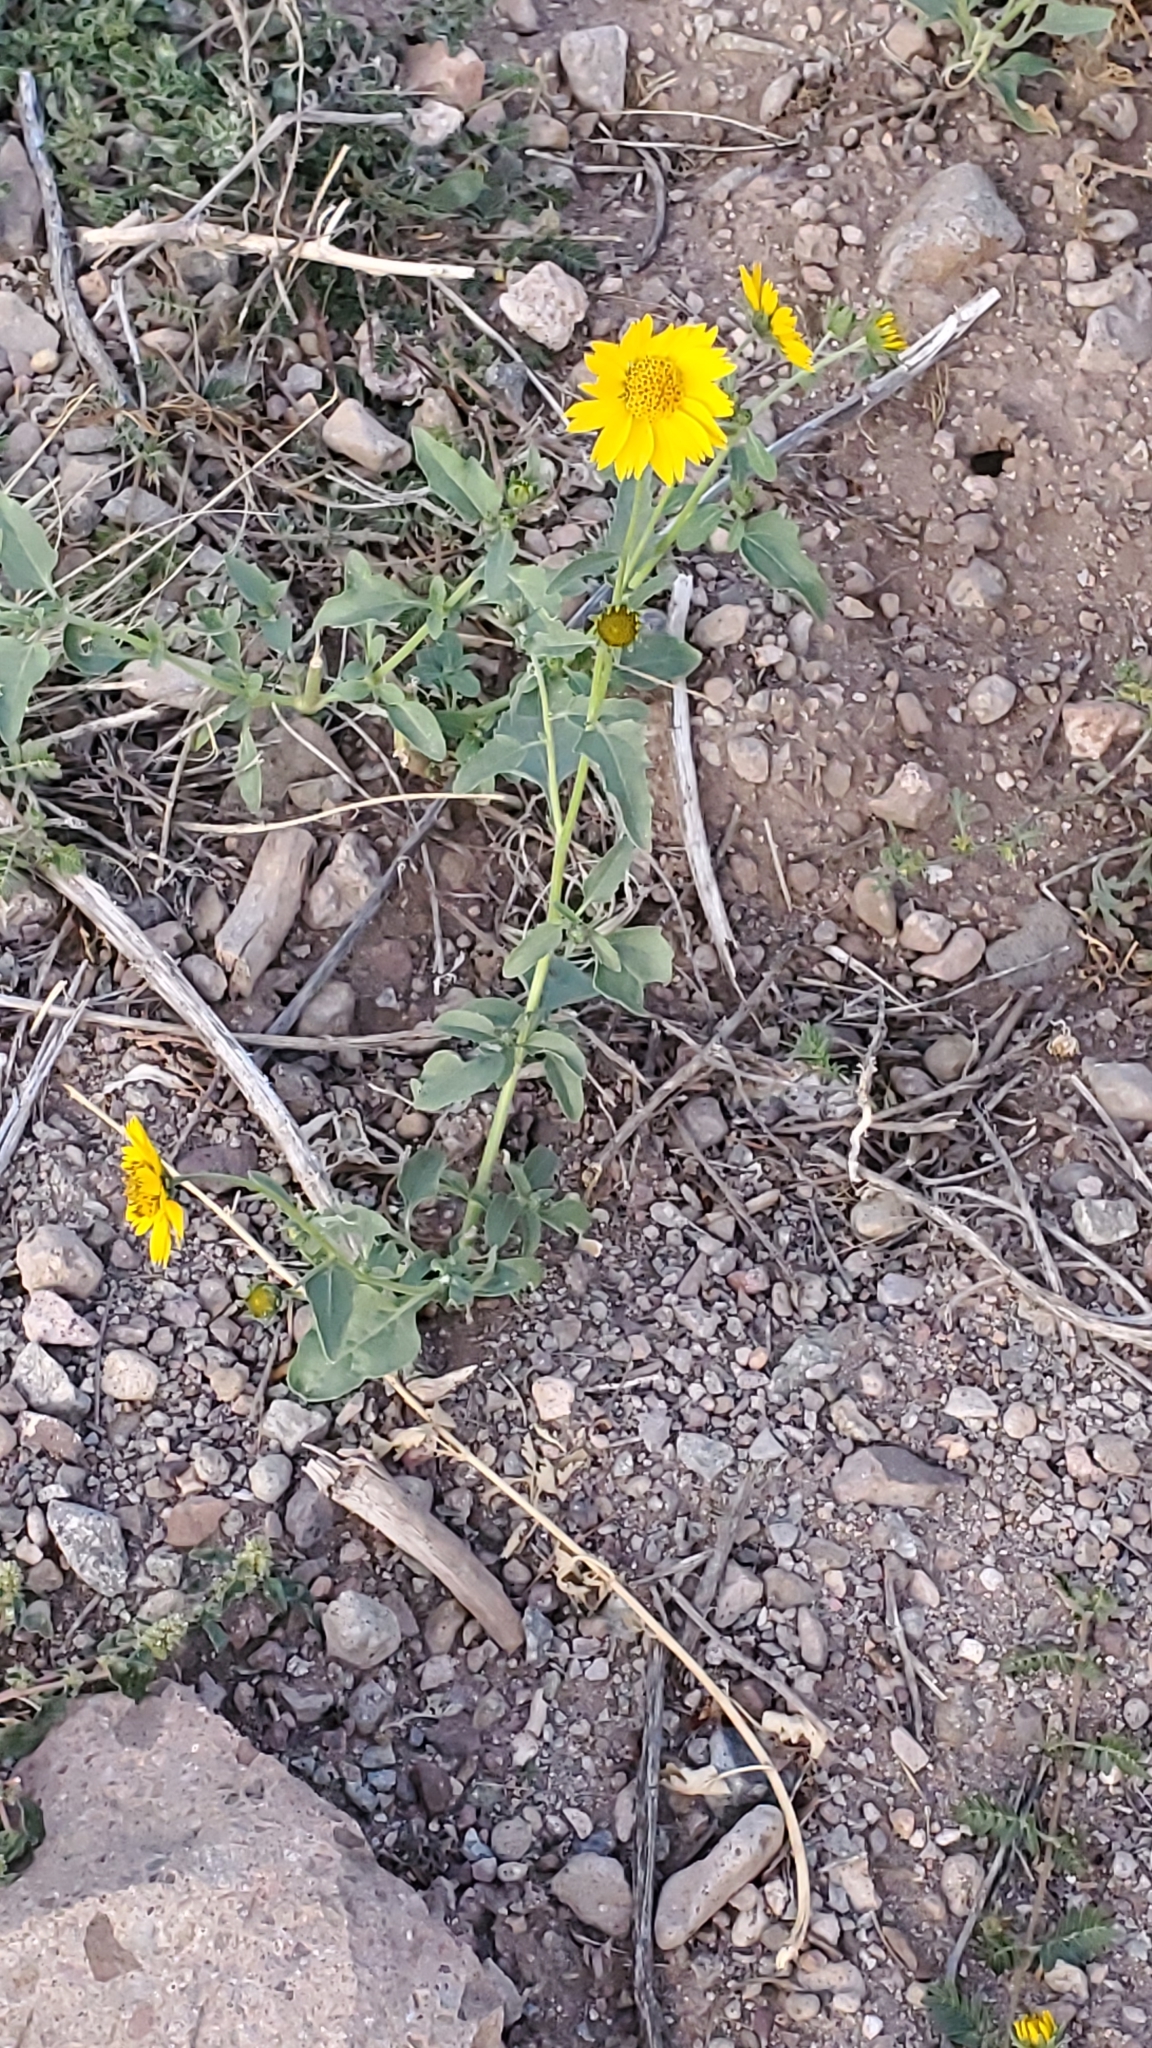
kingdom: Plantae
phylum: Tracheophyta
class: Magnoliopsida
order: Asterales
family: Asteraceae
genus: Verbesina
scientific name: Verbesina encelioides
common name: Golden crownbeard
